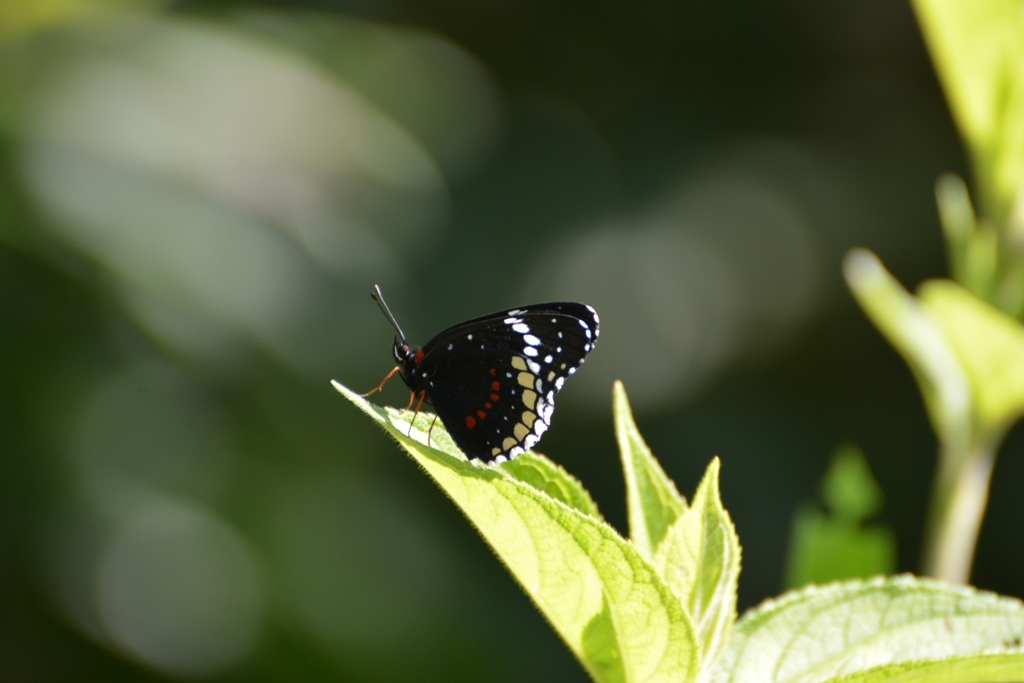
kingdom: Animalia
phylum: Arthropoda
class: Insecta
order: Lepidoptera
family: Nymphalidae
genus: Chlosyne
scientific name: Chlosyne hippodrome
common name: Simple patch
